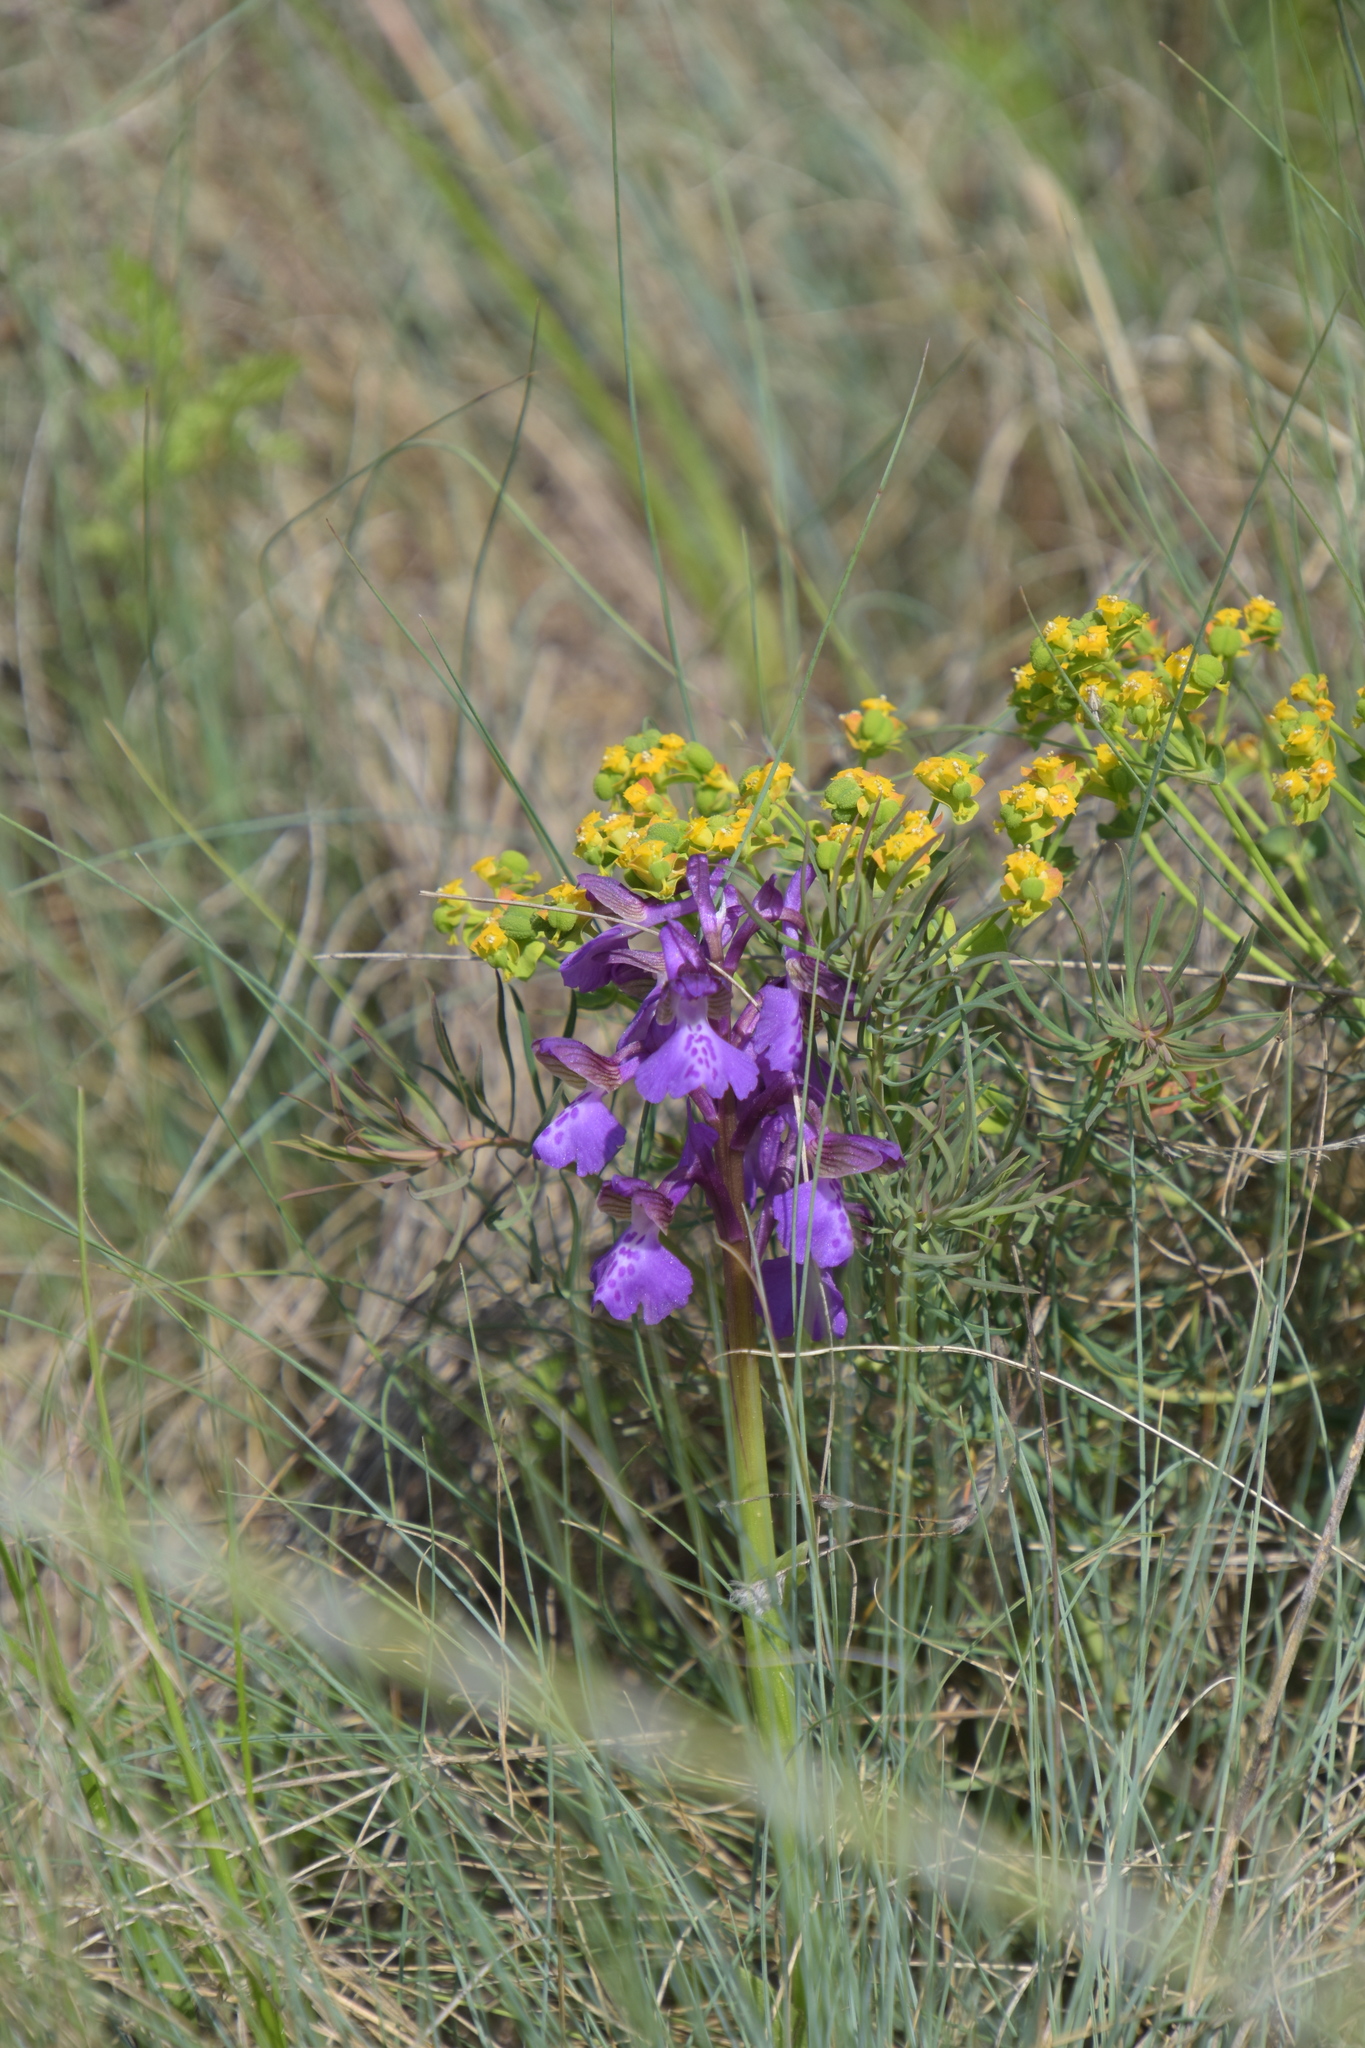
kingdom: Plantae
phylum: Tracheophyta
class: Liliopsida
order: Asparagales
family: Orchidaceae
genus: Anacamptis
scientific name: Anacamptis morio
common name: Green-winged orchid
